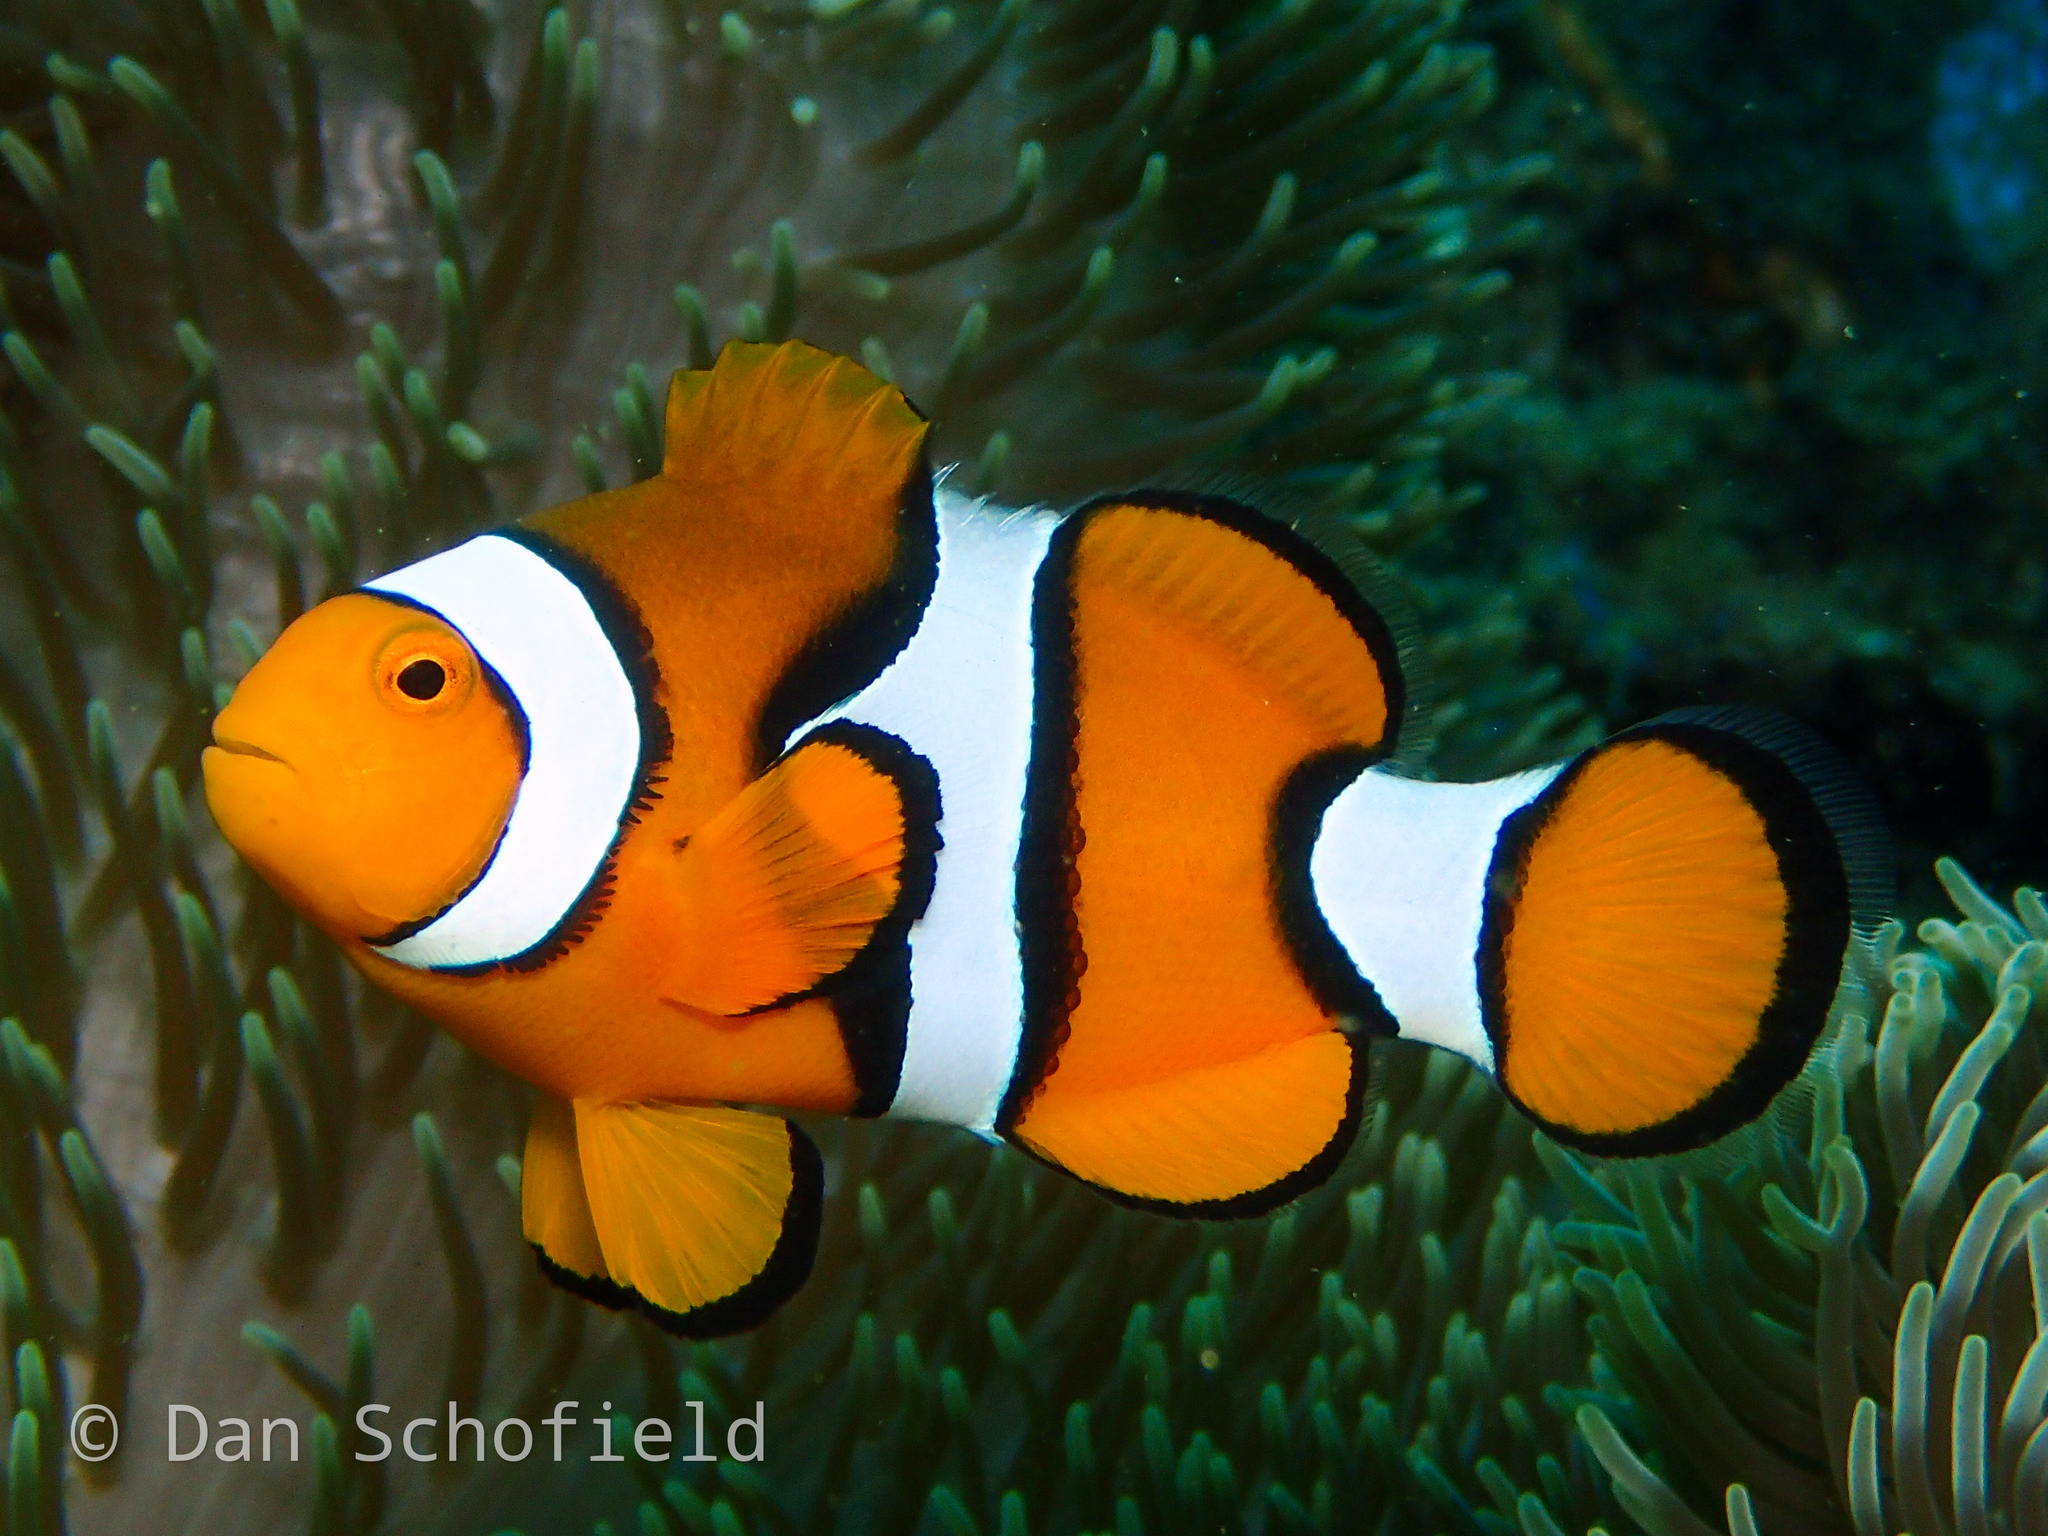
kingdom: Animalia
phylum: Chordata
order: Perciformes
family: Pomacentridae
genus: Amphiprion
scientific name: Amphiprion ocellaris
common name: Clown anemonefish
